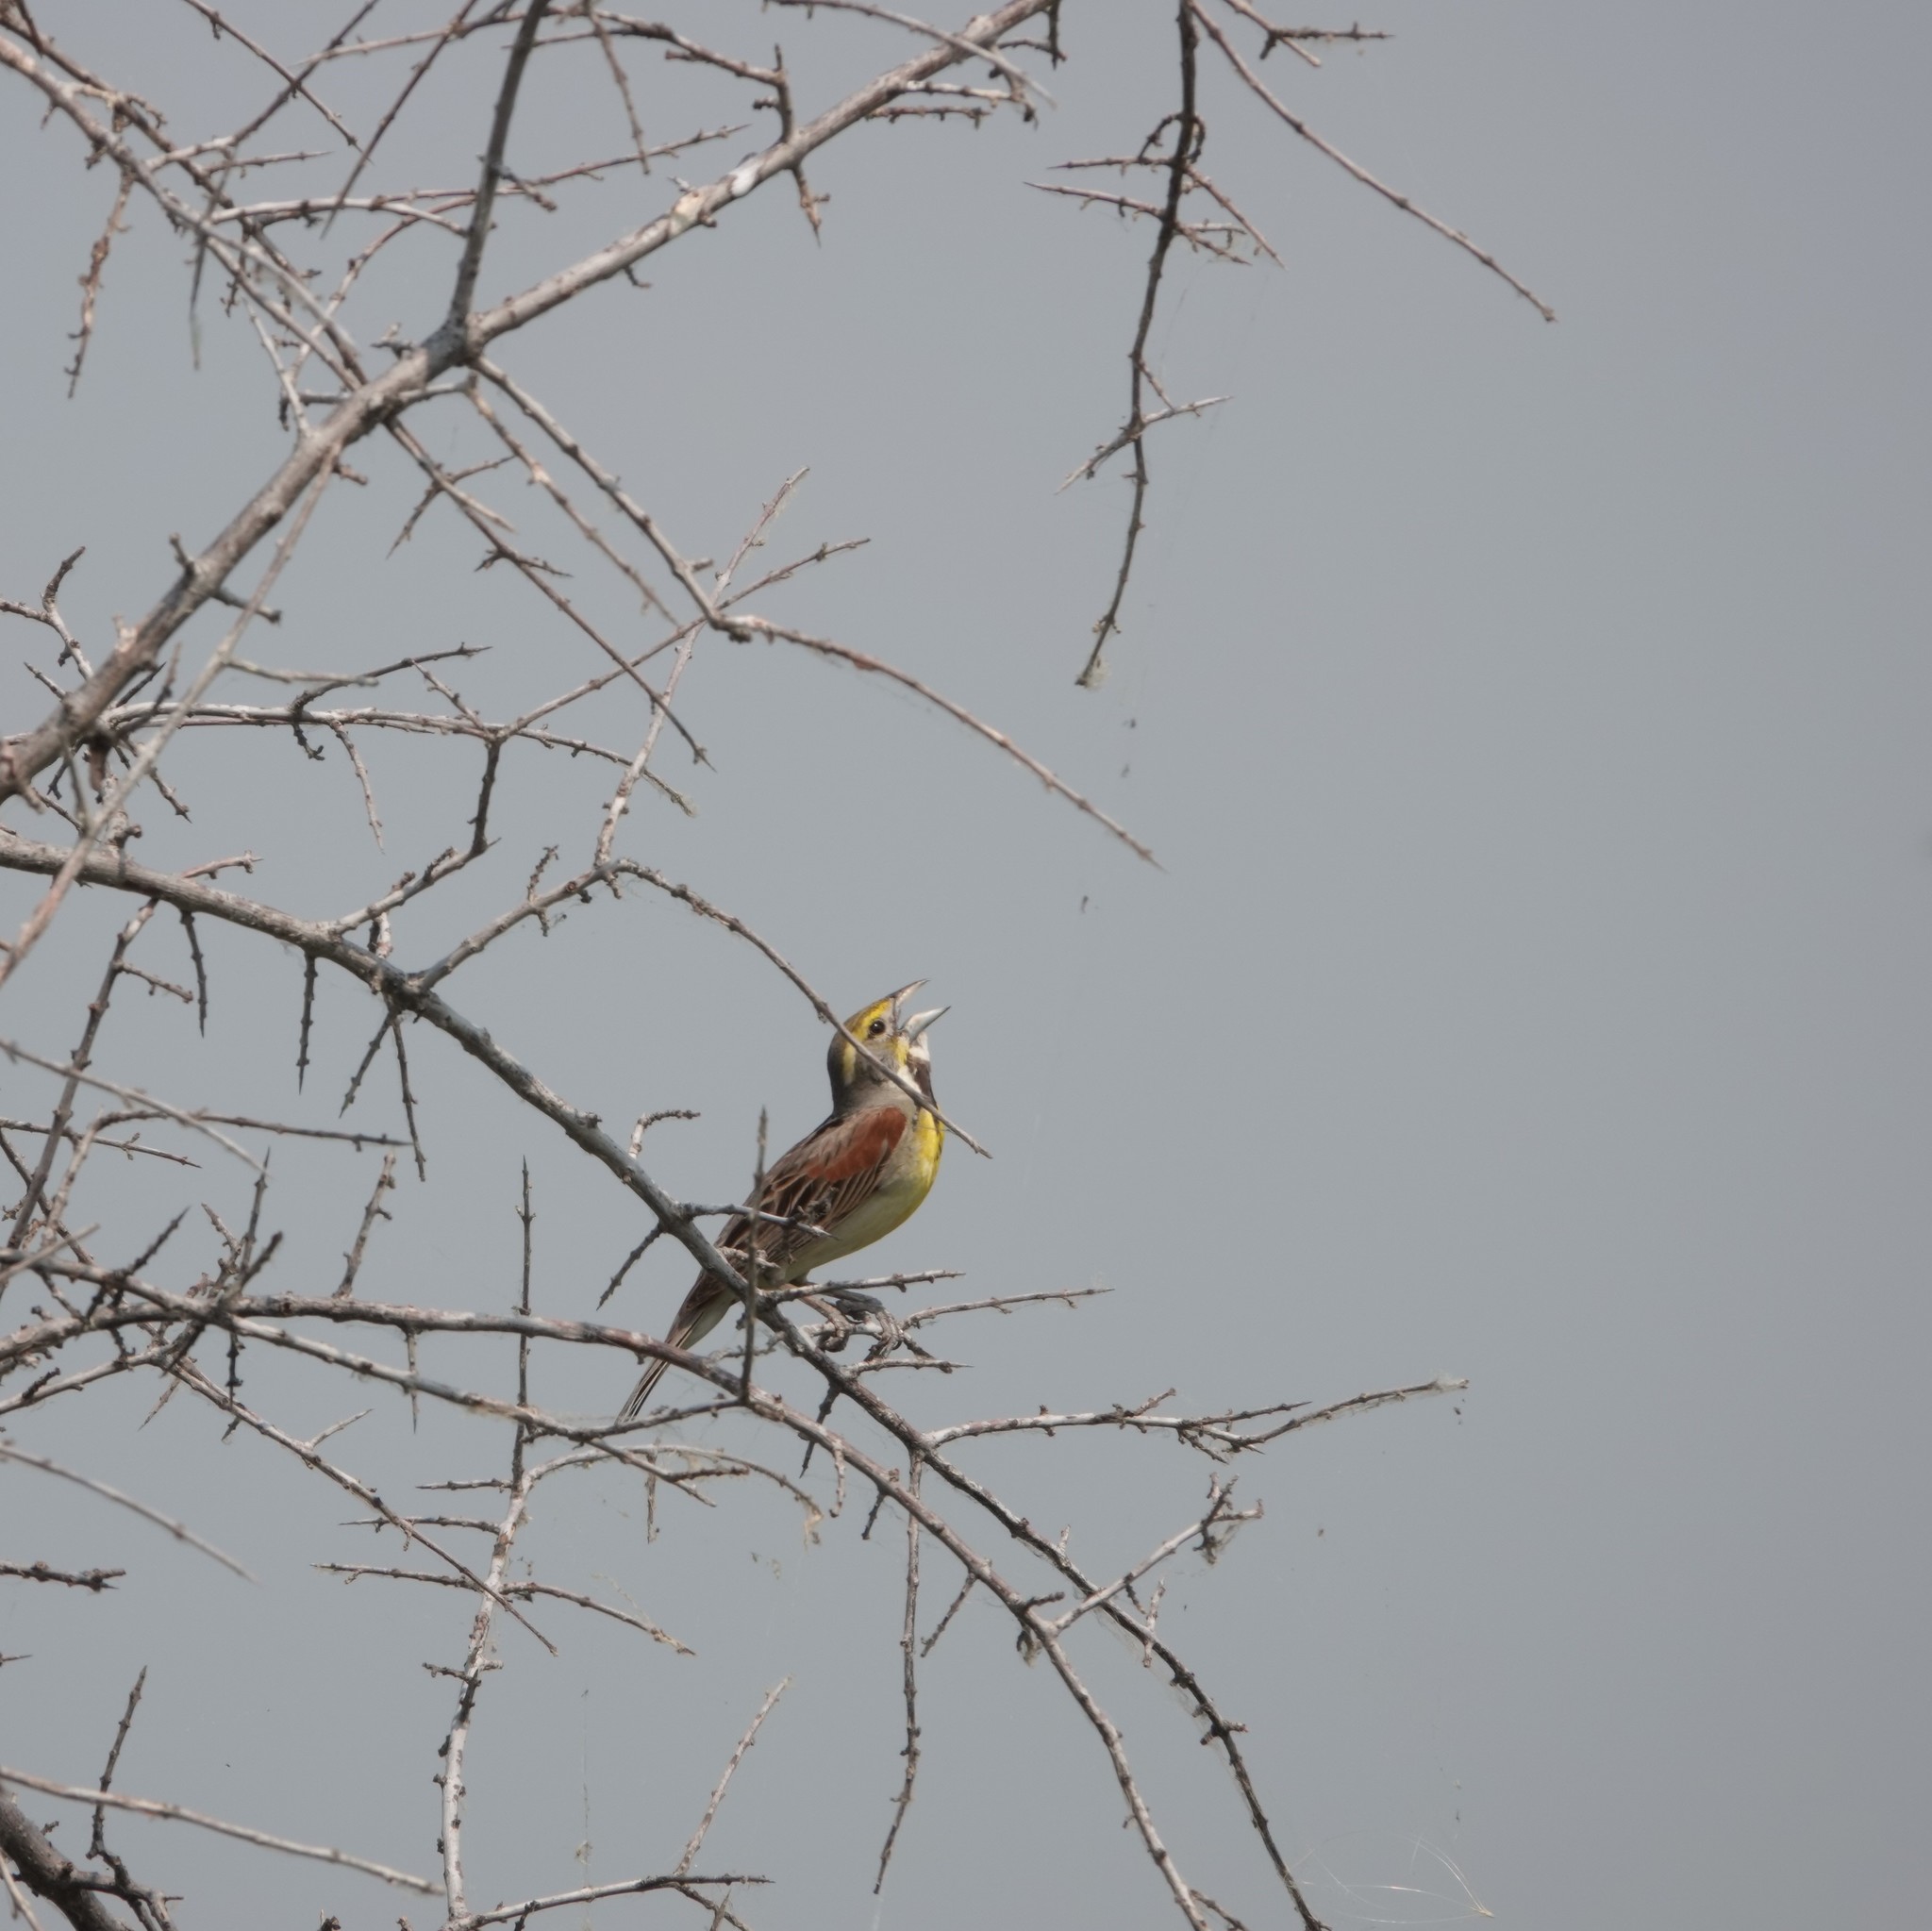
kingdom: Animalia
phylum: Chordata
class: Aves
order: Passeriformes
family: Cardinalidae
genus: Spiza
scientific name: Spiza americana
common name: Dickcissel
